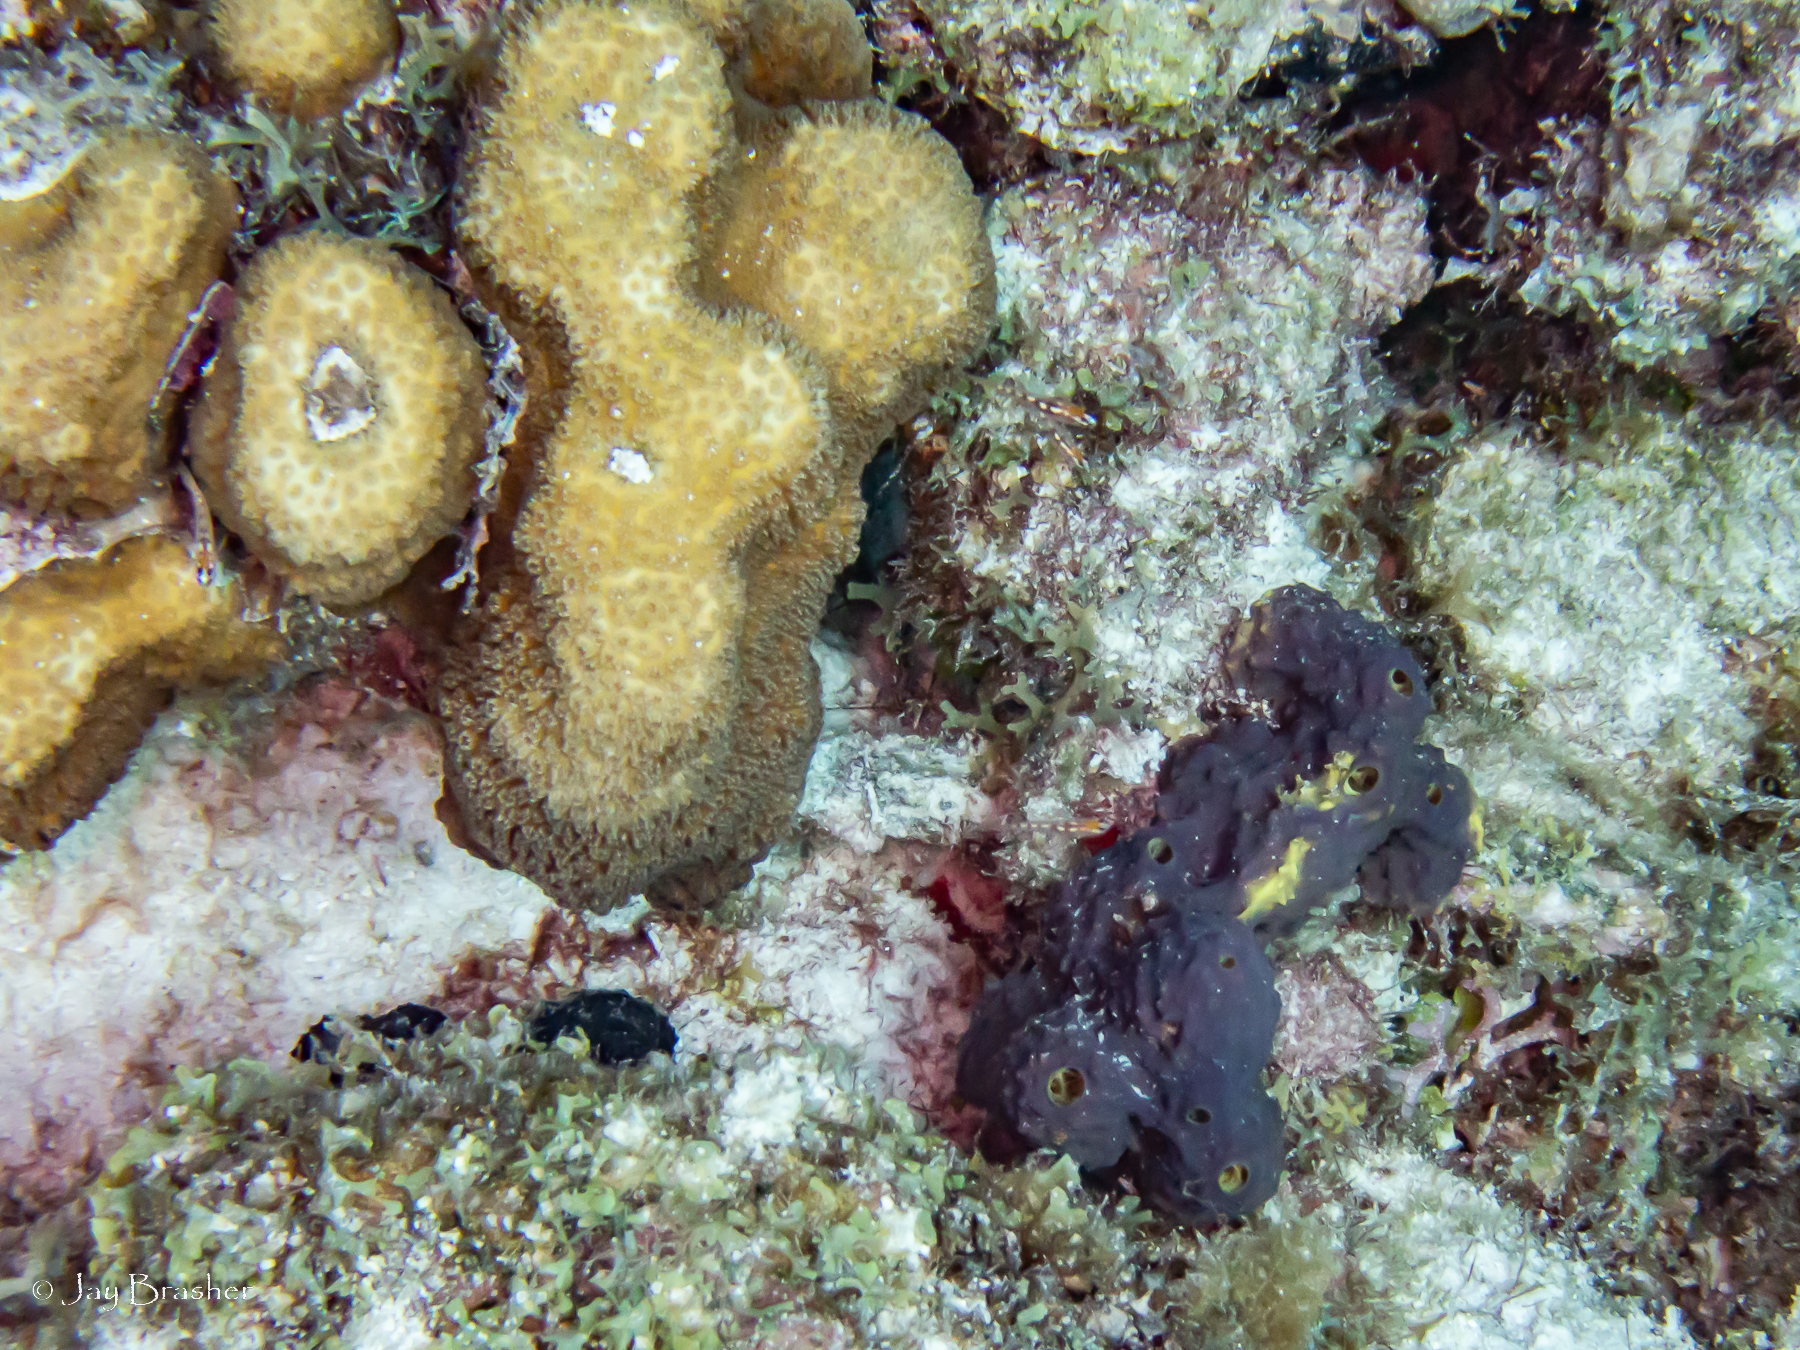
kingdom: Animalia
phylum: Porifera
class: Demospongiae
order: Verongiida
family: Aplysinidae
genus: Aiolochroia
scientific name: Aiolochroia crassa
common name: Branching tube sponge
